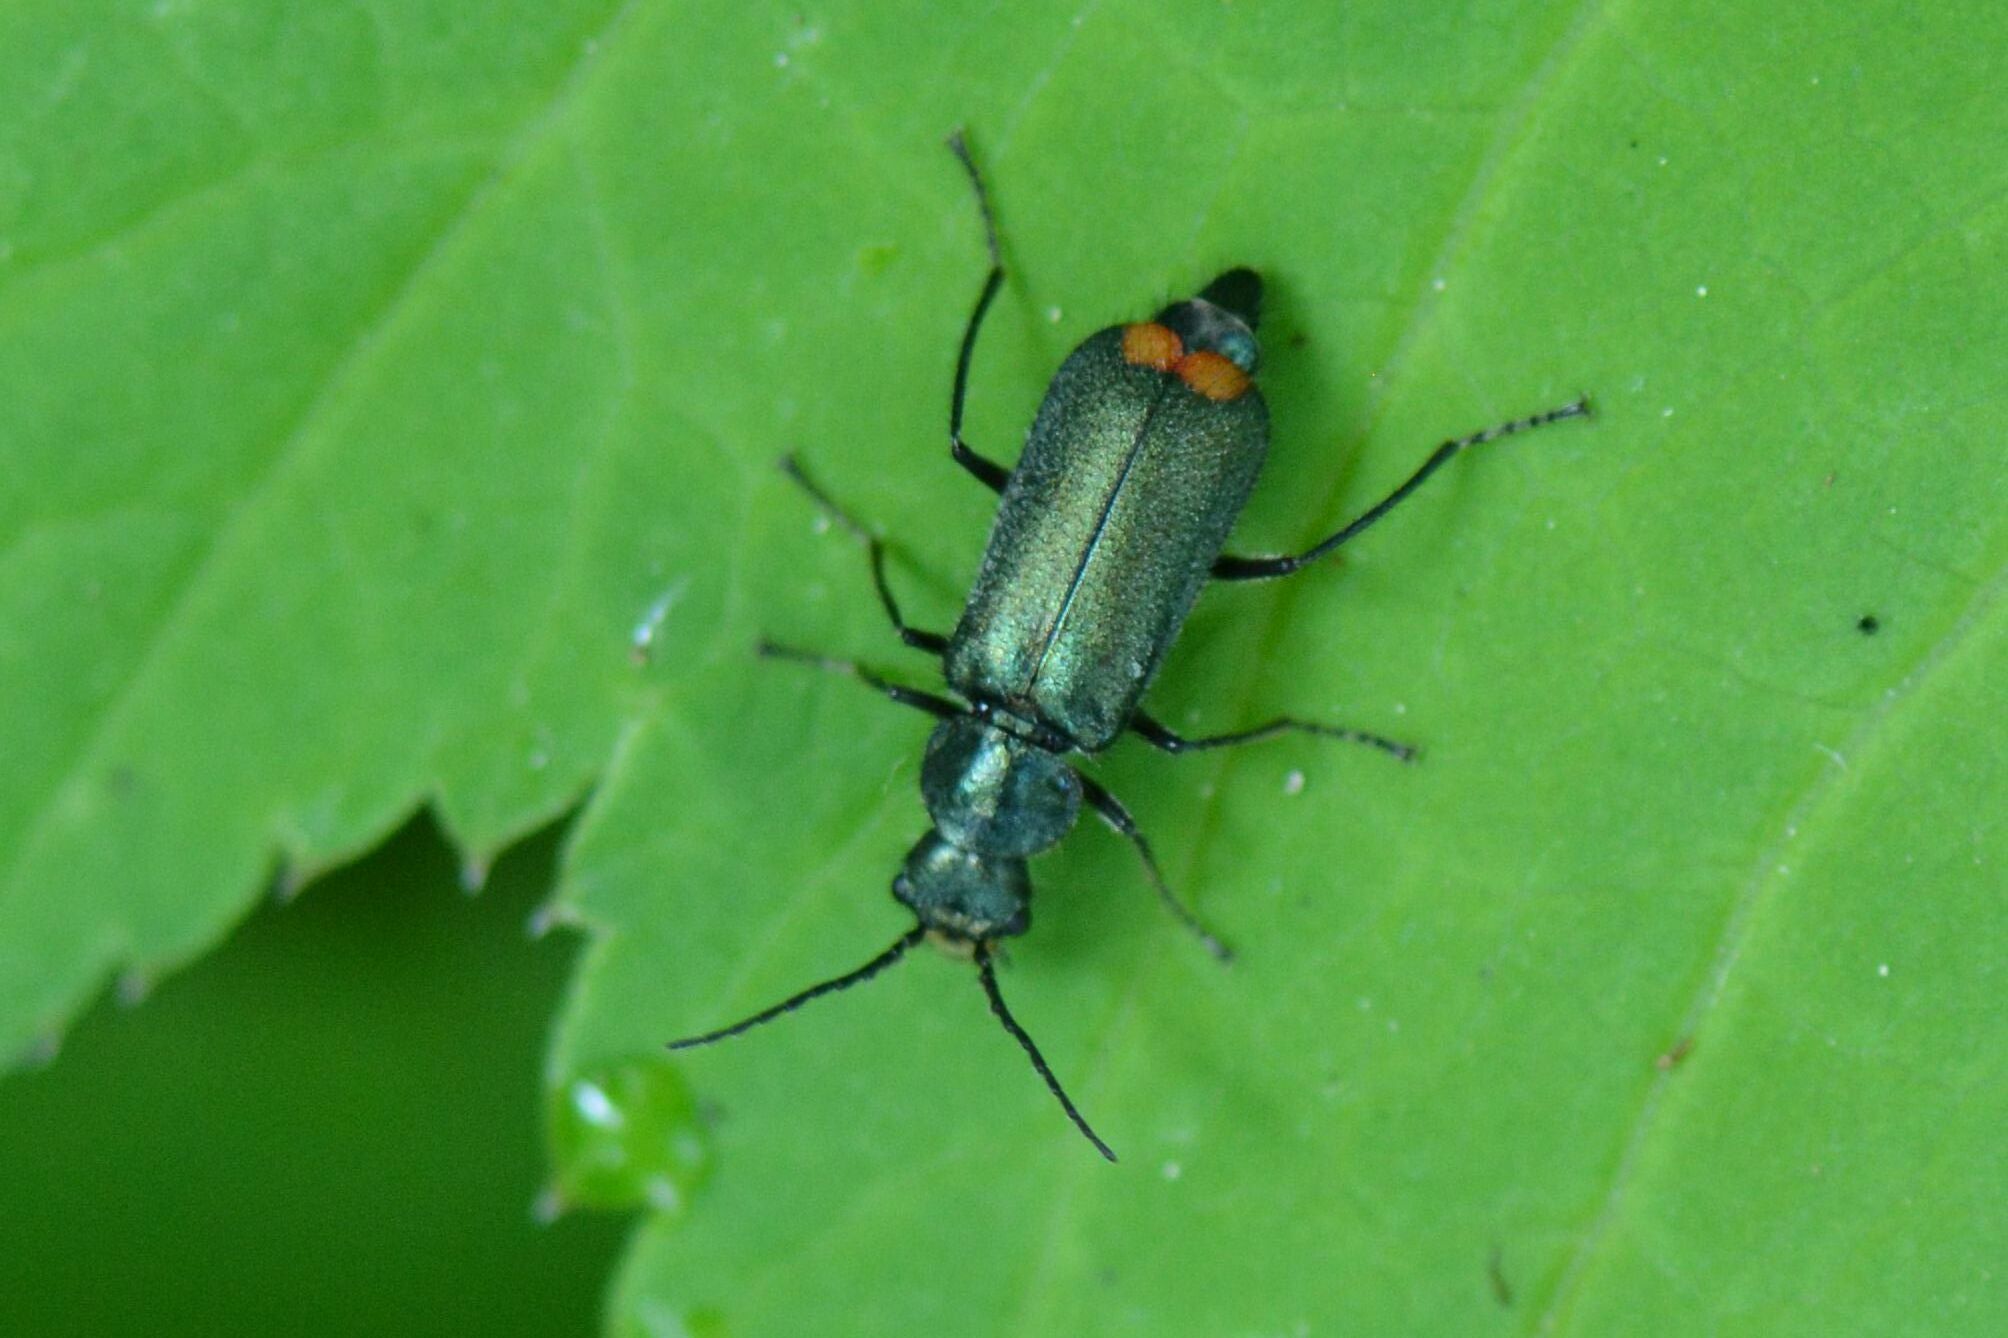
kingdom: Animalia
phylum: Arthropoda
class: Insecta
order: Coleoptera
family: Melyridae
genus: Malachius
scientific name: Malachius bipustulatus
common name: Malachite beetle
